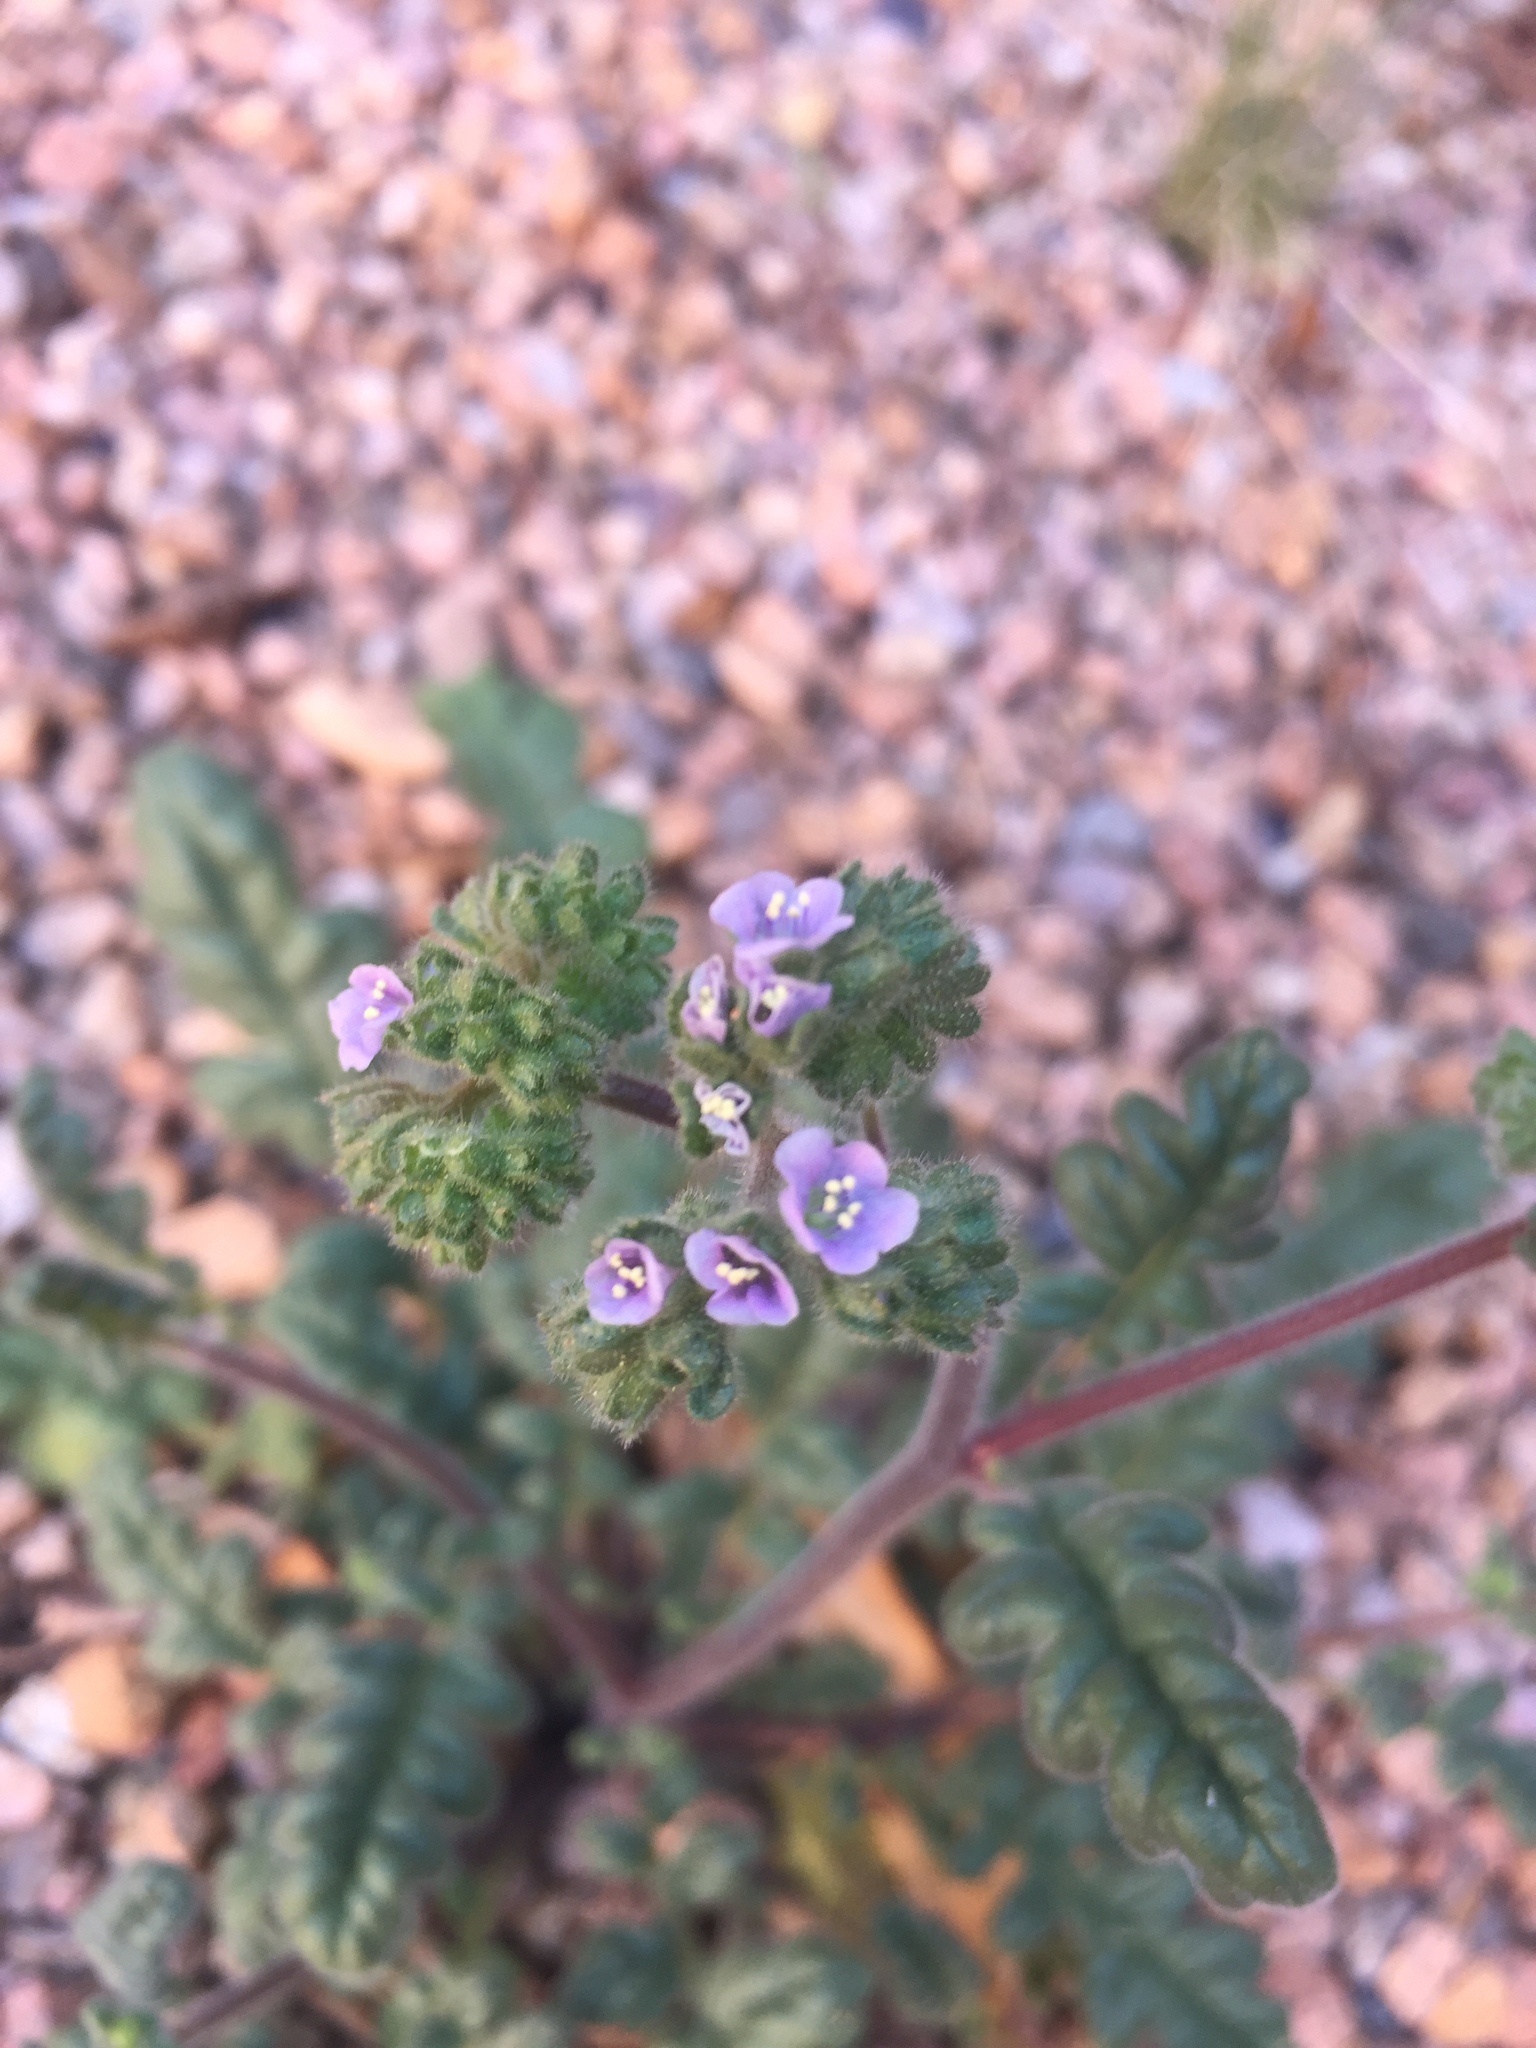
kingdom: Plantae
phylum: Tracheophyta
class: Magnoliopsida
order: Boraginales
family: Hydrophyllaceae
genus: Phacelia
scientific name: Phacelia coerulea
